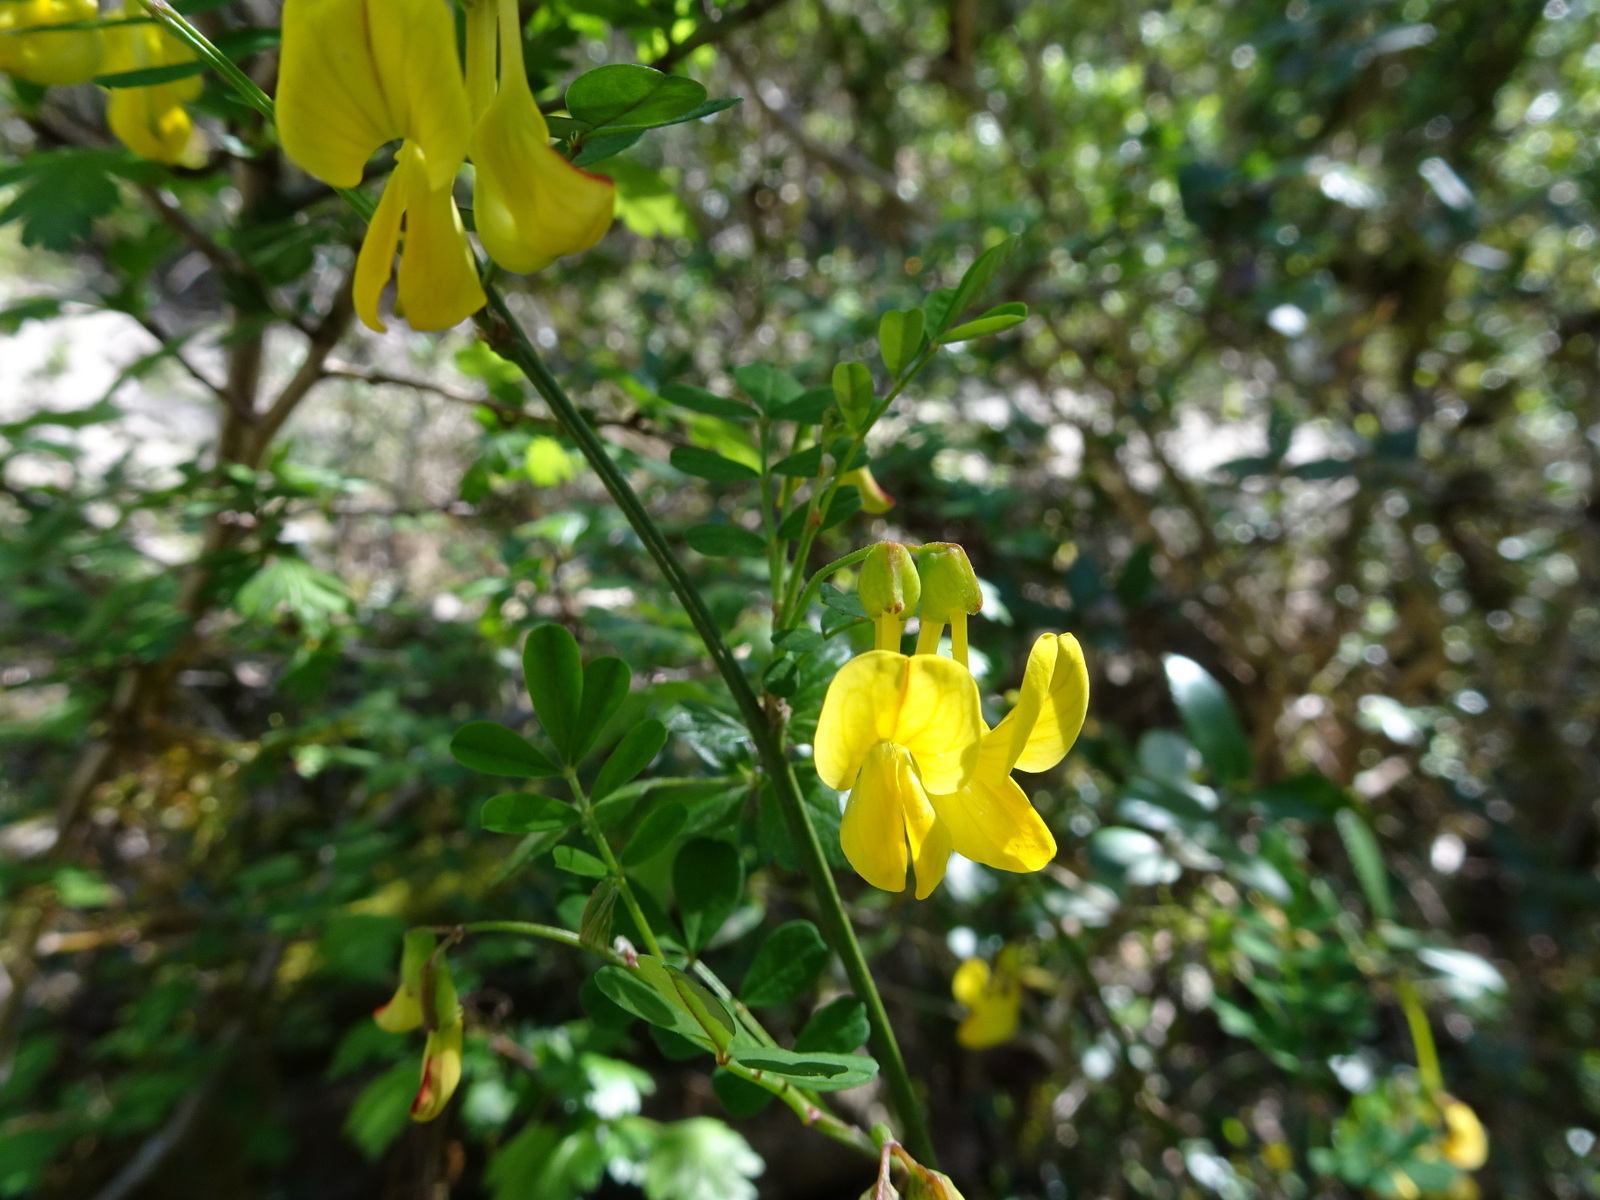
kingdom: Plantae
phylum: Tracheophyta
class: Magnoliopsida
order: Fabales
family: Fabaceae
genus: Hippocrepis
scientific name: Hippocrepis emerus
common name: Scorpion senna
